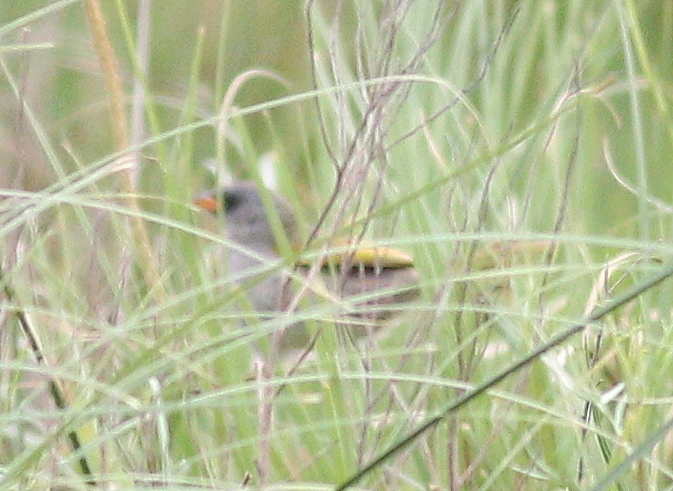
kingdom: Animalia
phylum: Chordata
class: Aves
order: Passeriformes
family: Thraupidae
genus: Embernagra
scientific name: Embernagra platensis
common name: Pampa finch
